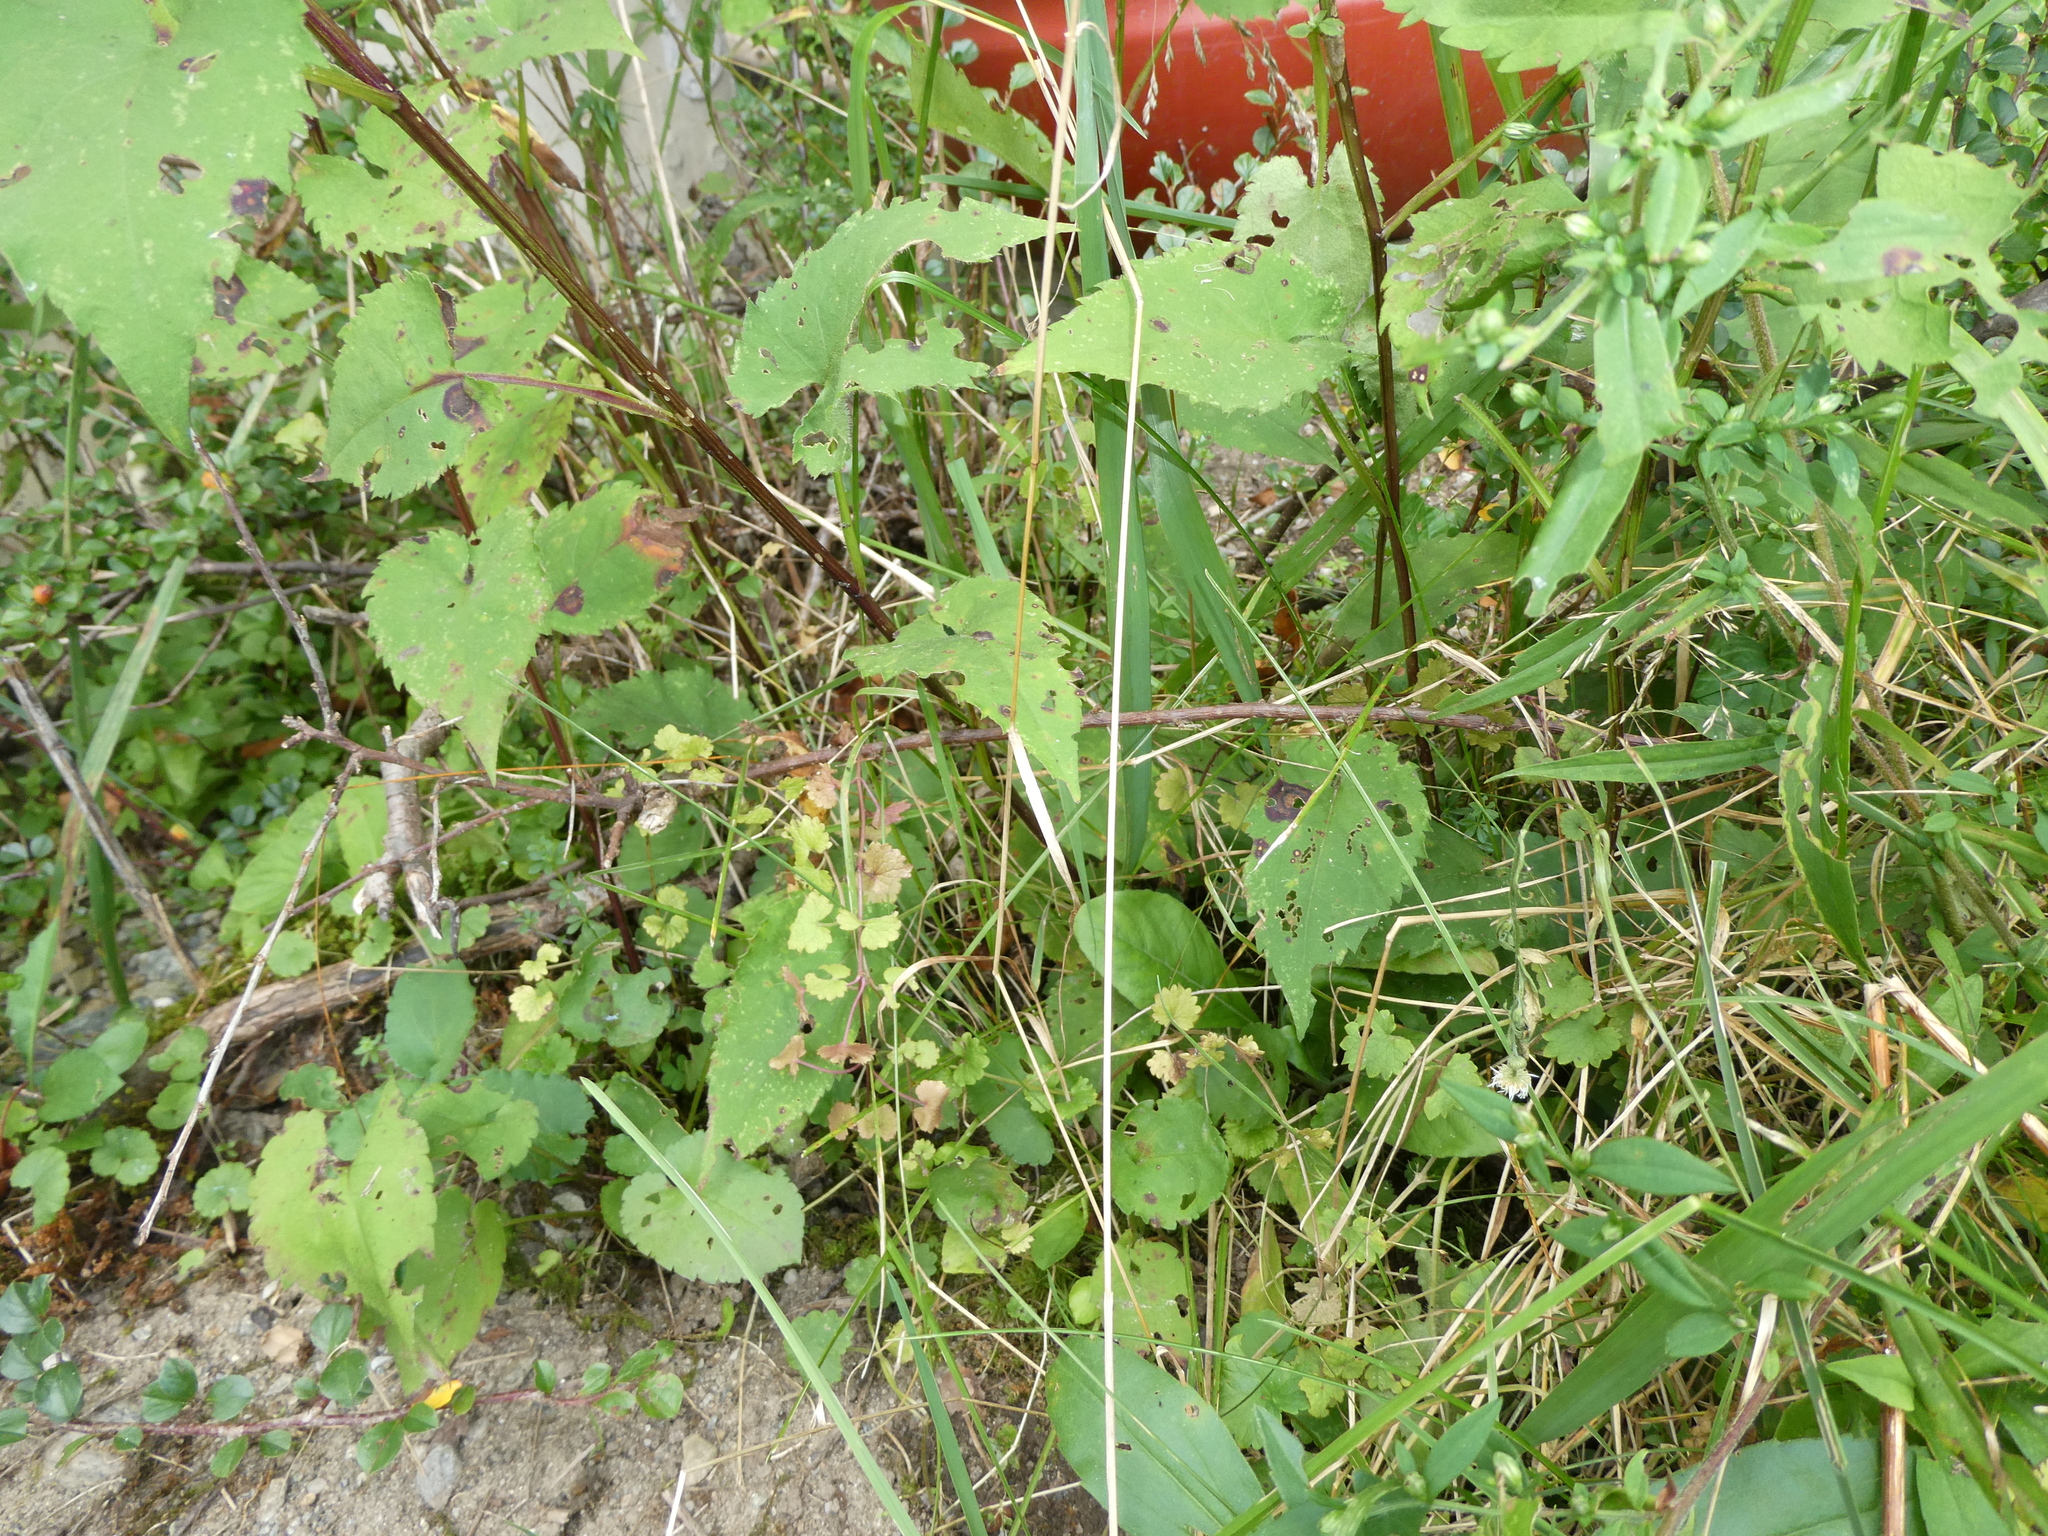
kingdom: Plantae
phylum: Tracheophyta
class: Magnoliopsida
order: Asterales
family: Asteraceae
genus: Symphyotrichum
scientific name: Symphyotrichum cordifolium
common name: Beeweed
